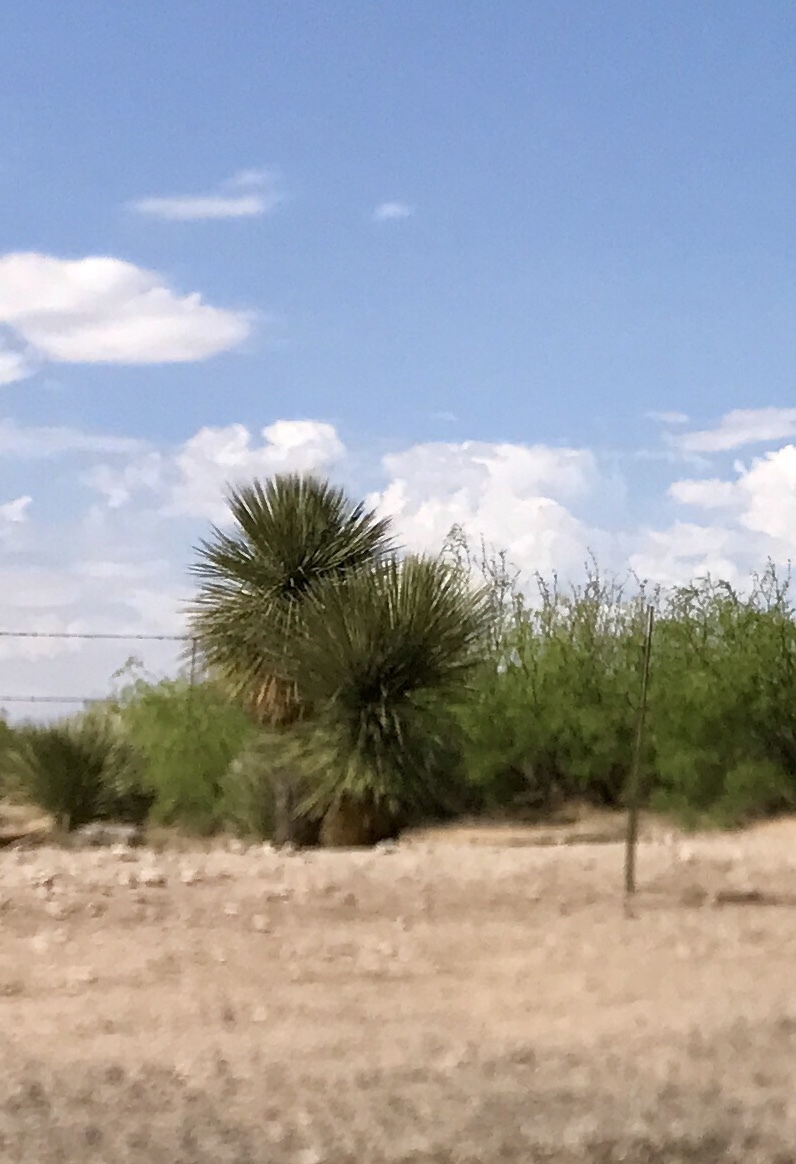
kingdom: Plantae
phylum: Tracheophyta
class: Liliopsida
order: Asparagales
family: Asparagaceae
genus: Yucca
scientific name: Yucca elata
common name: Palmella
